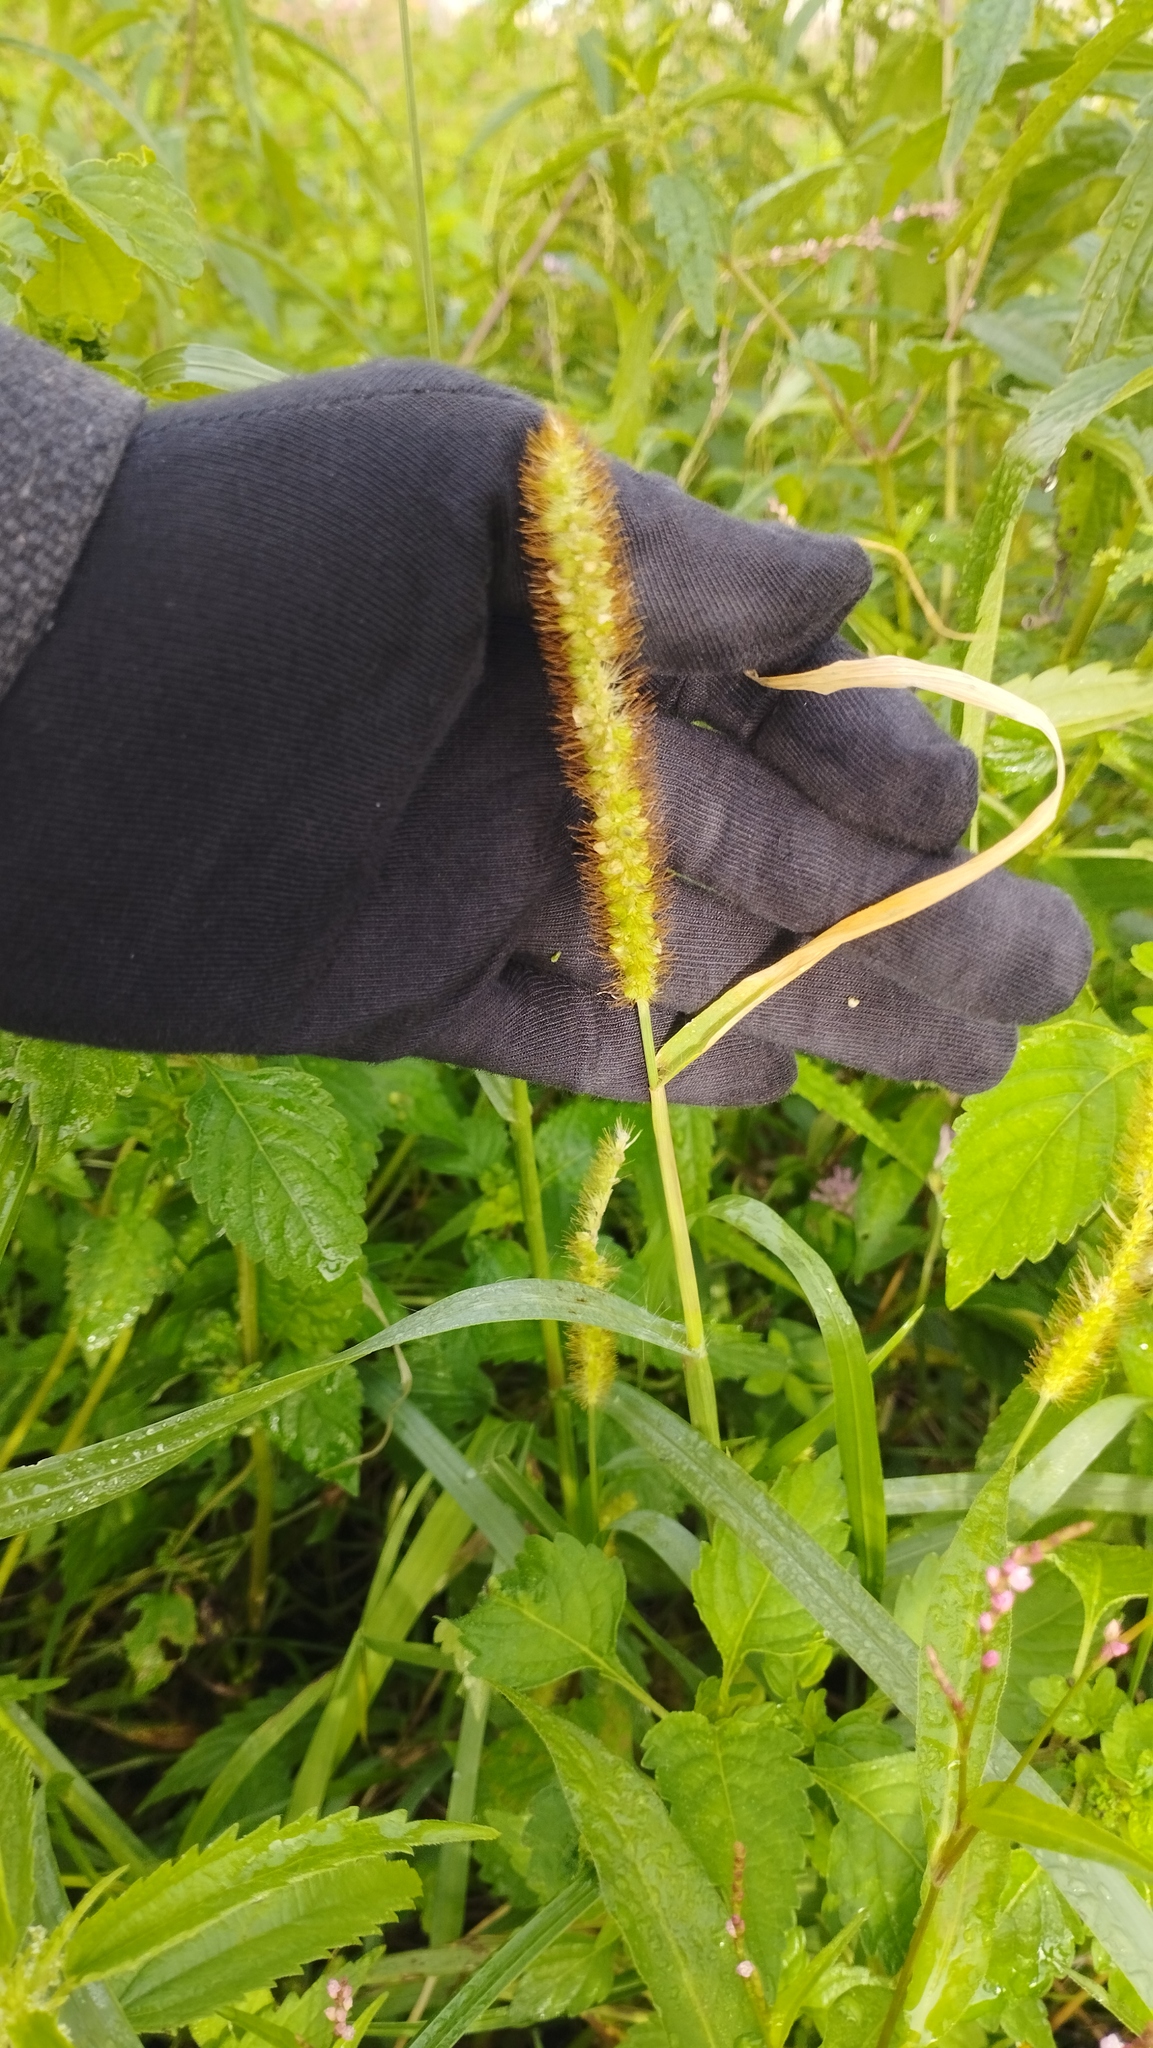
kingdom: Plantae
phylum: Tracheophyta
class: Liliopsida
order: Poales
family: Poaceae
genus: Setaria
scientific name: Setaria pumila
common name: Yellow bristle-grass
